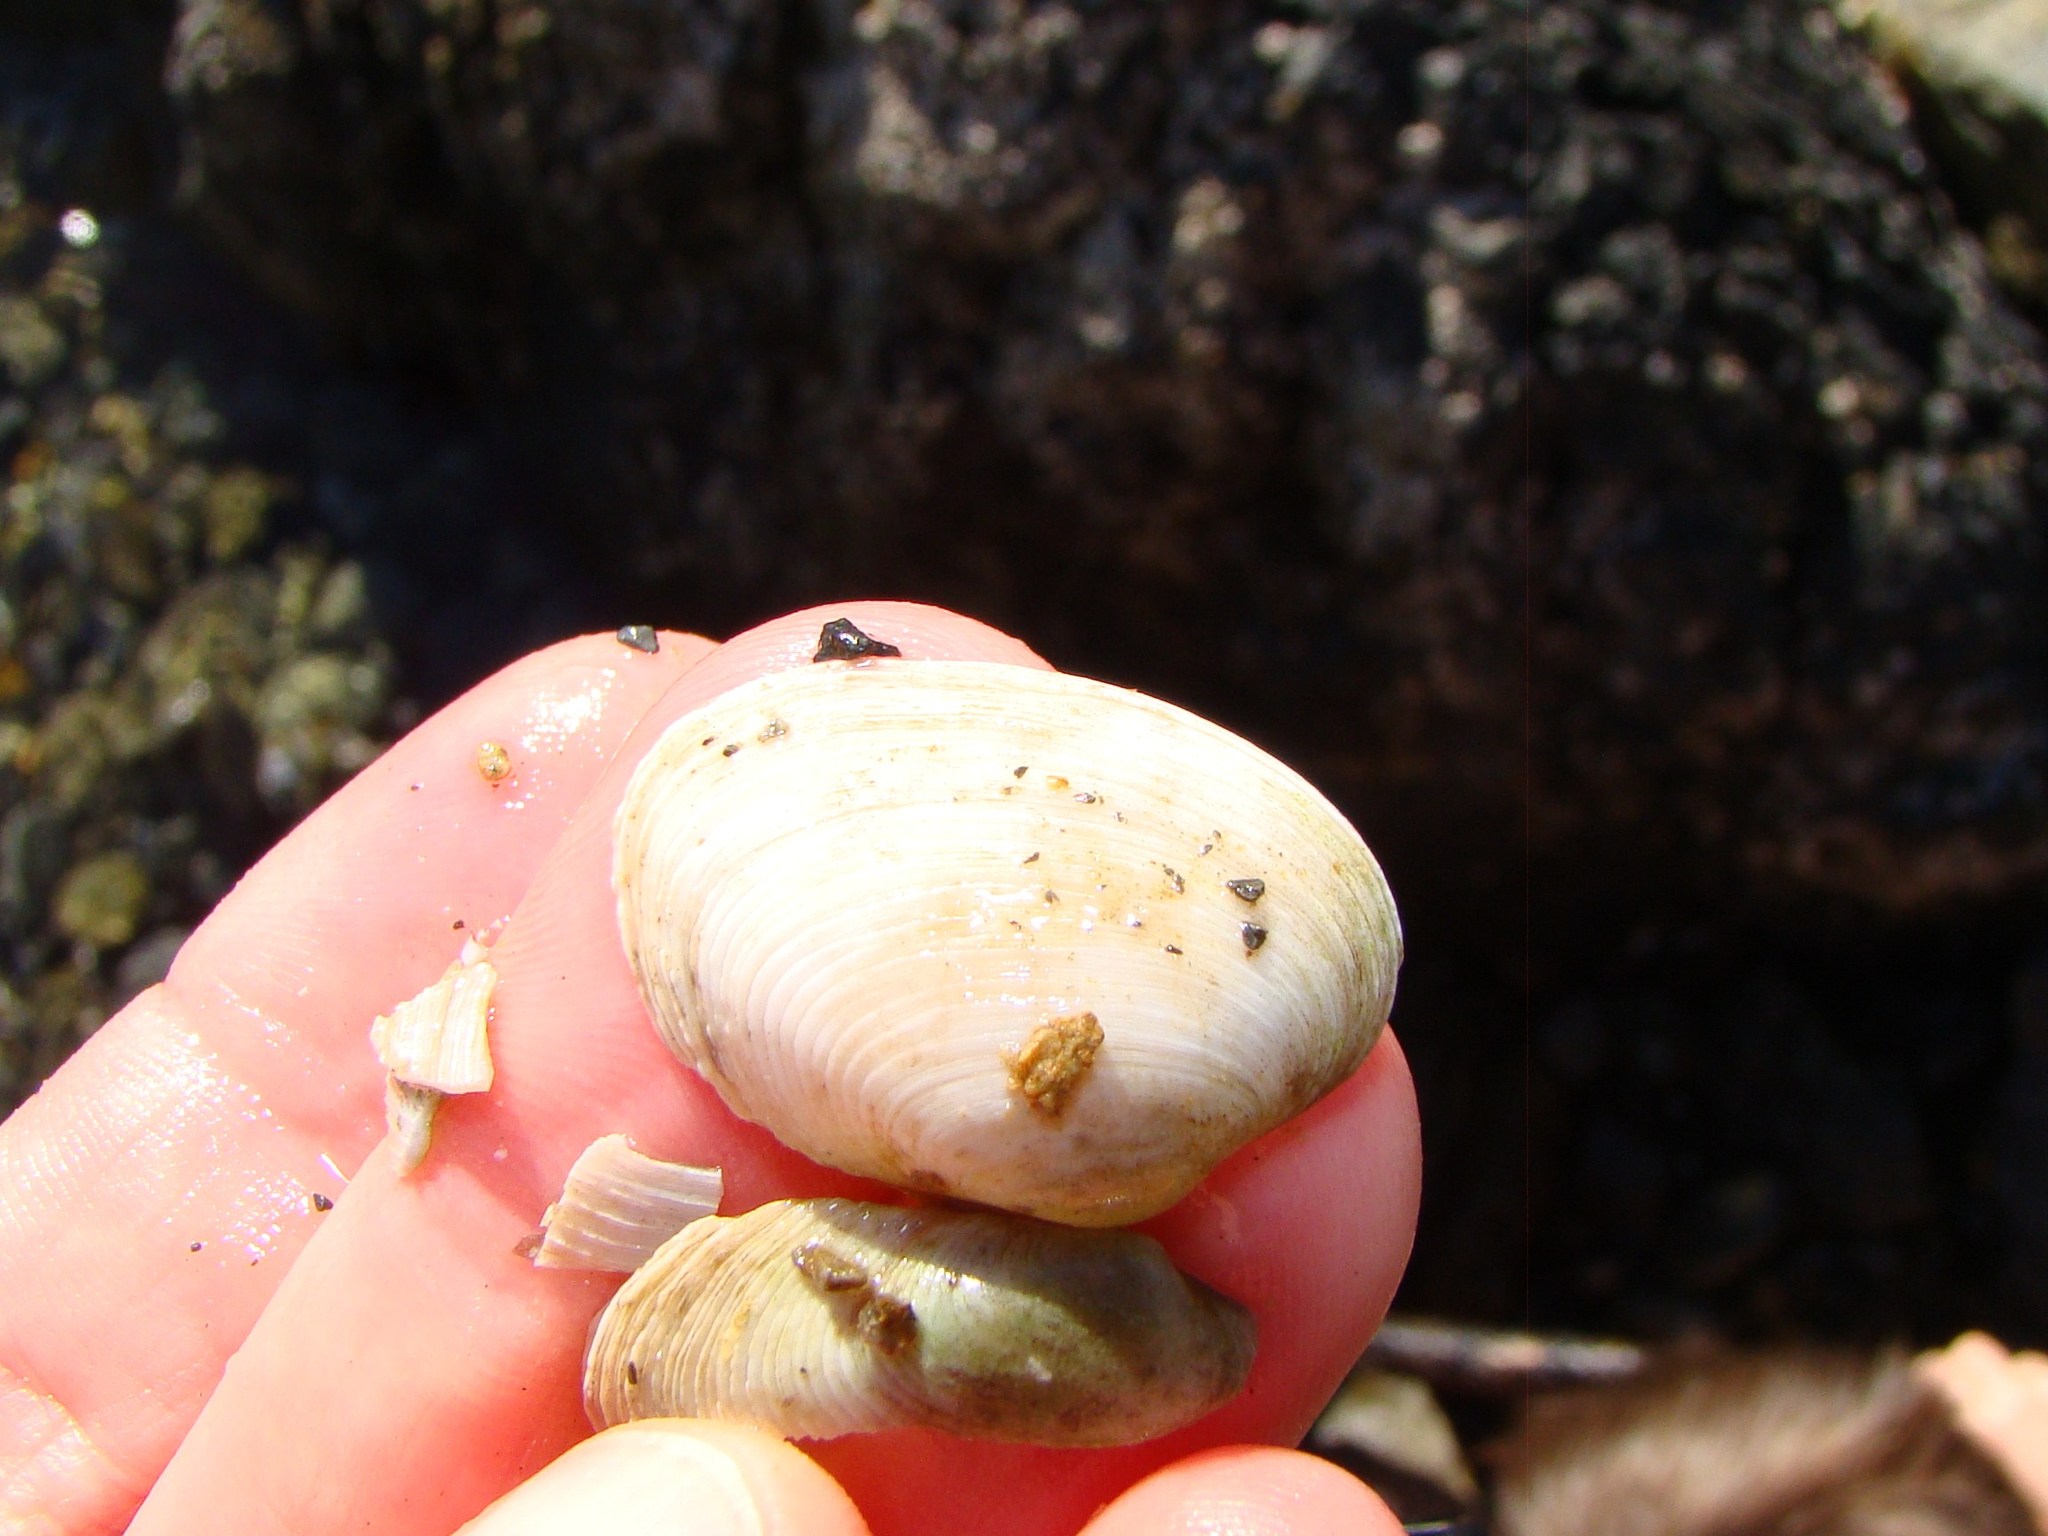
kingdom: Animalia
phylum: Mollusca
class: Bivalvia
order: Venerida
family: Veneridae
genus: Irus
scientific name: Irus reflexus
